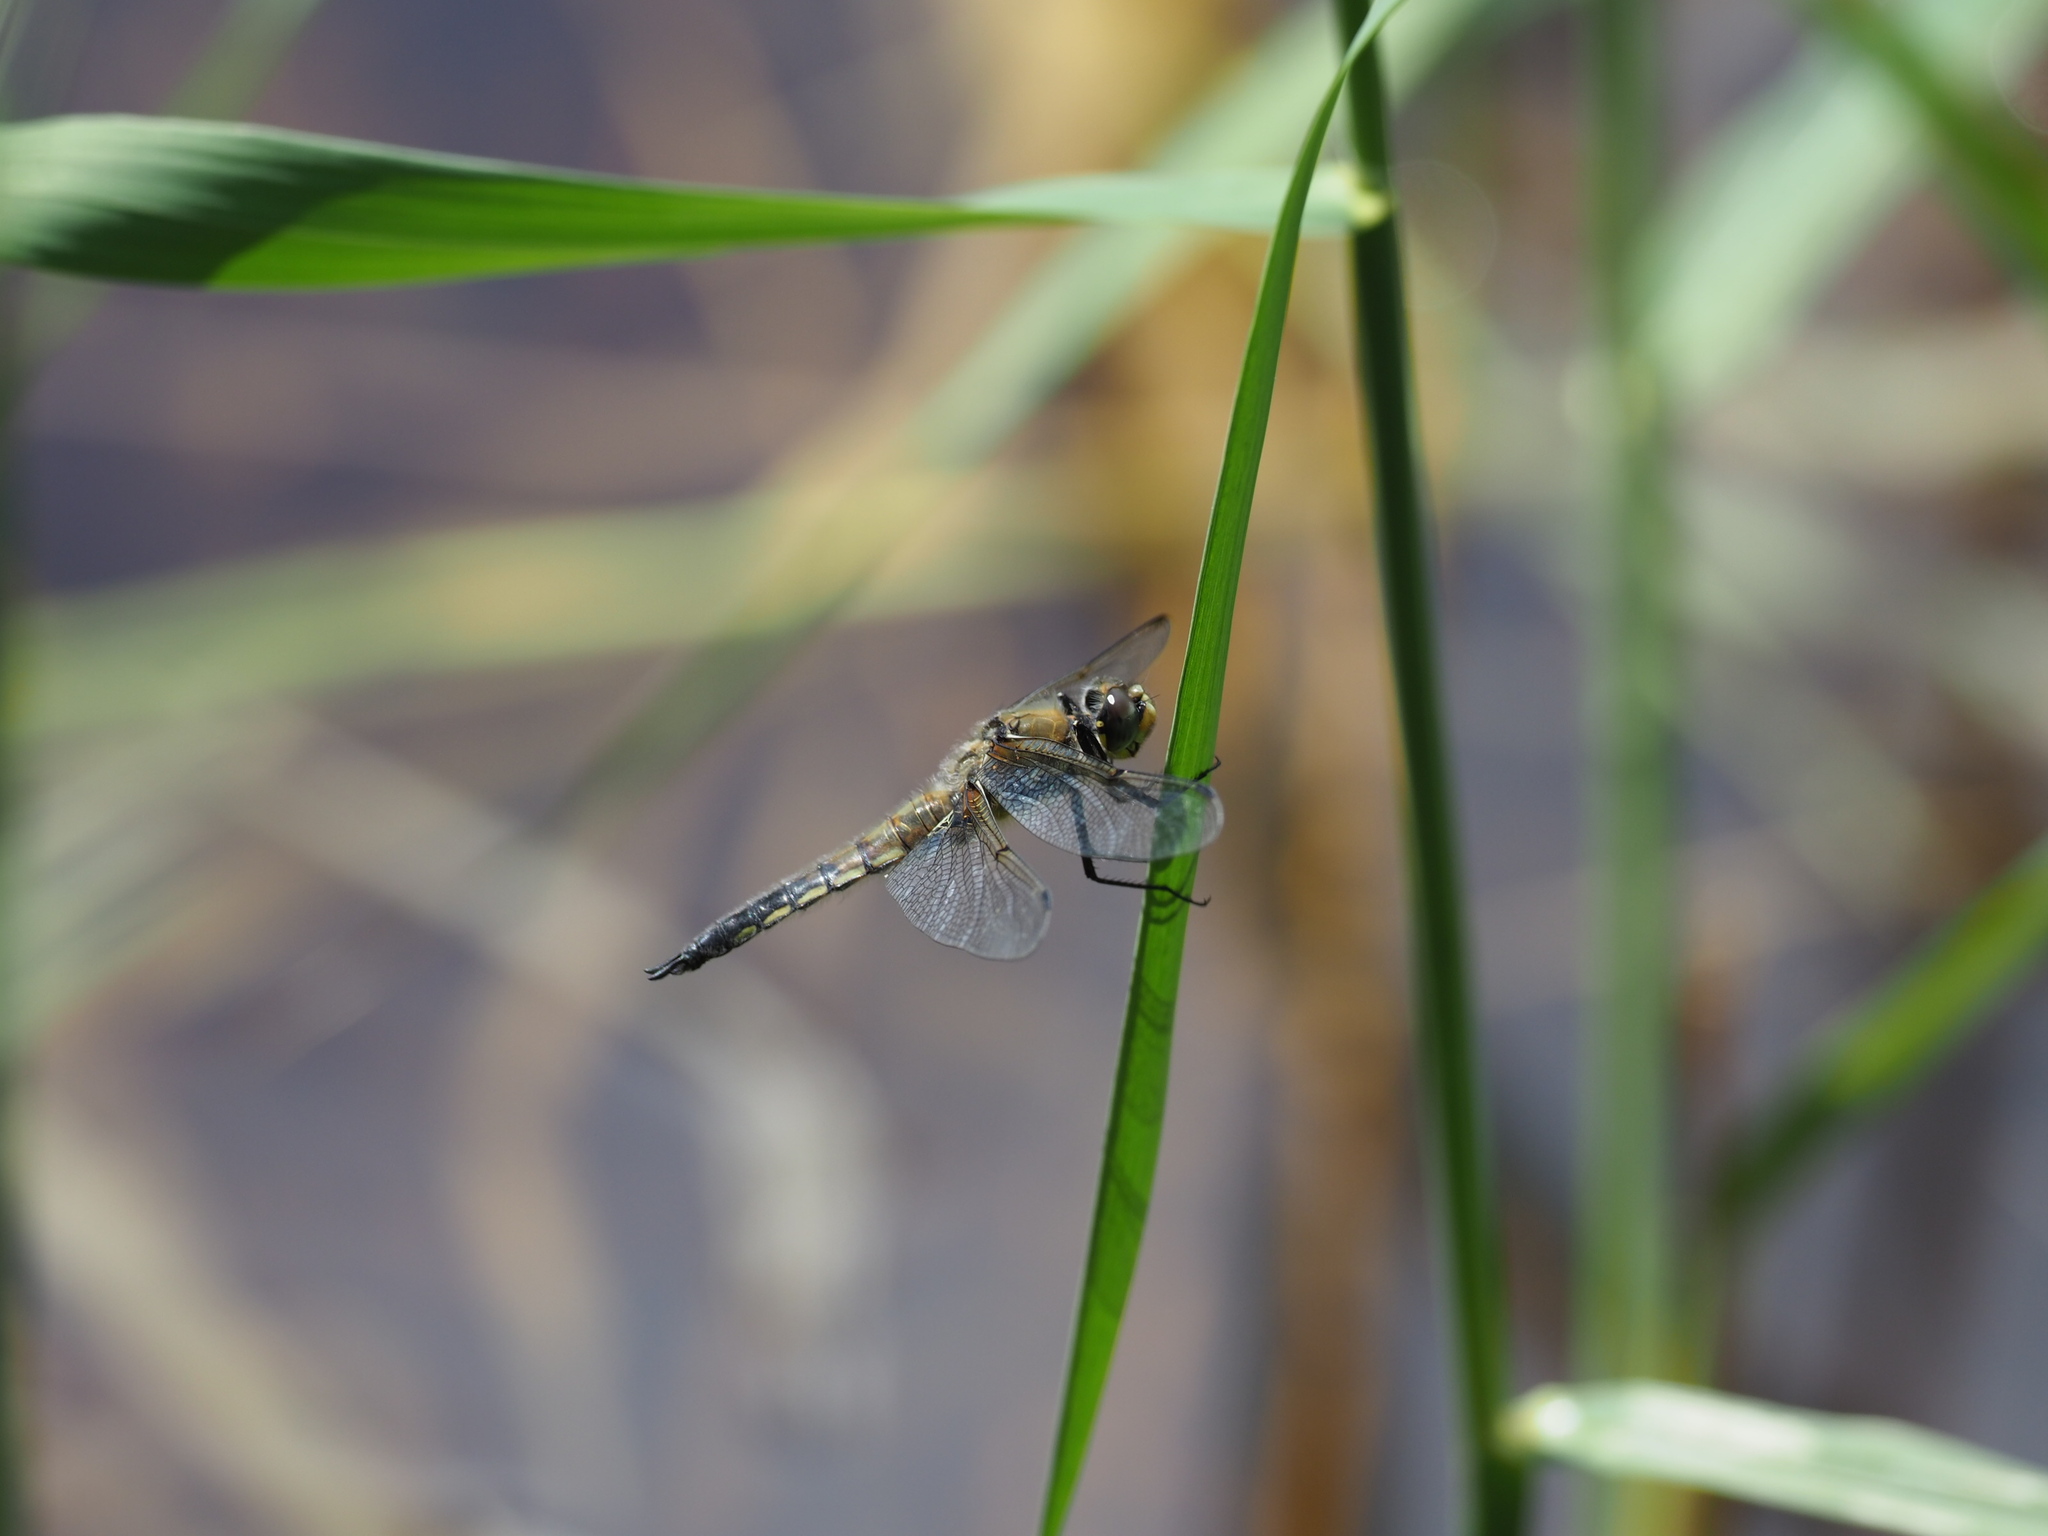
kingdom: Animalia
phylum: Arthropoda
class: Insecta
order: Odonata
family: Libellulidae
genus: Libellula
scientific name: Libellula quadrimaculata
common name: Four-spotted chaser
